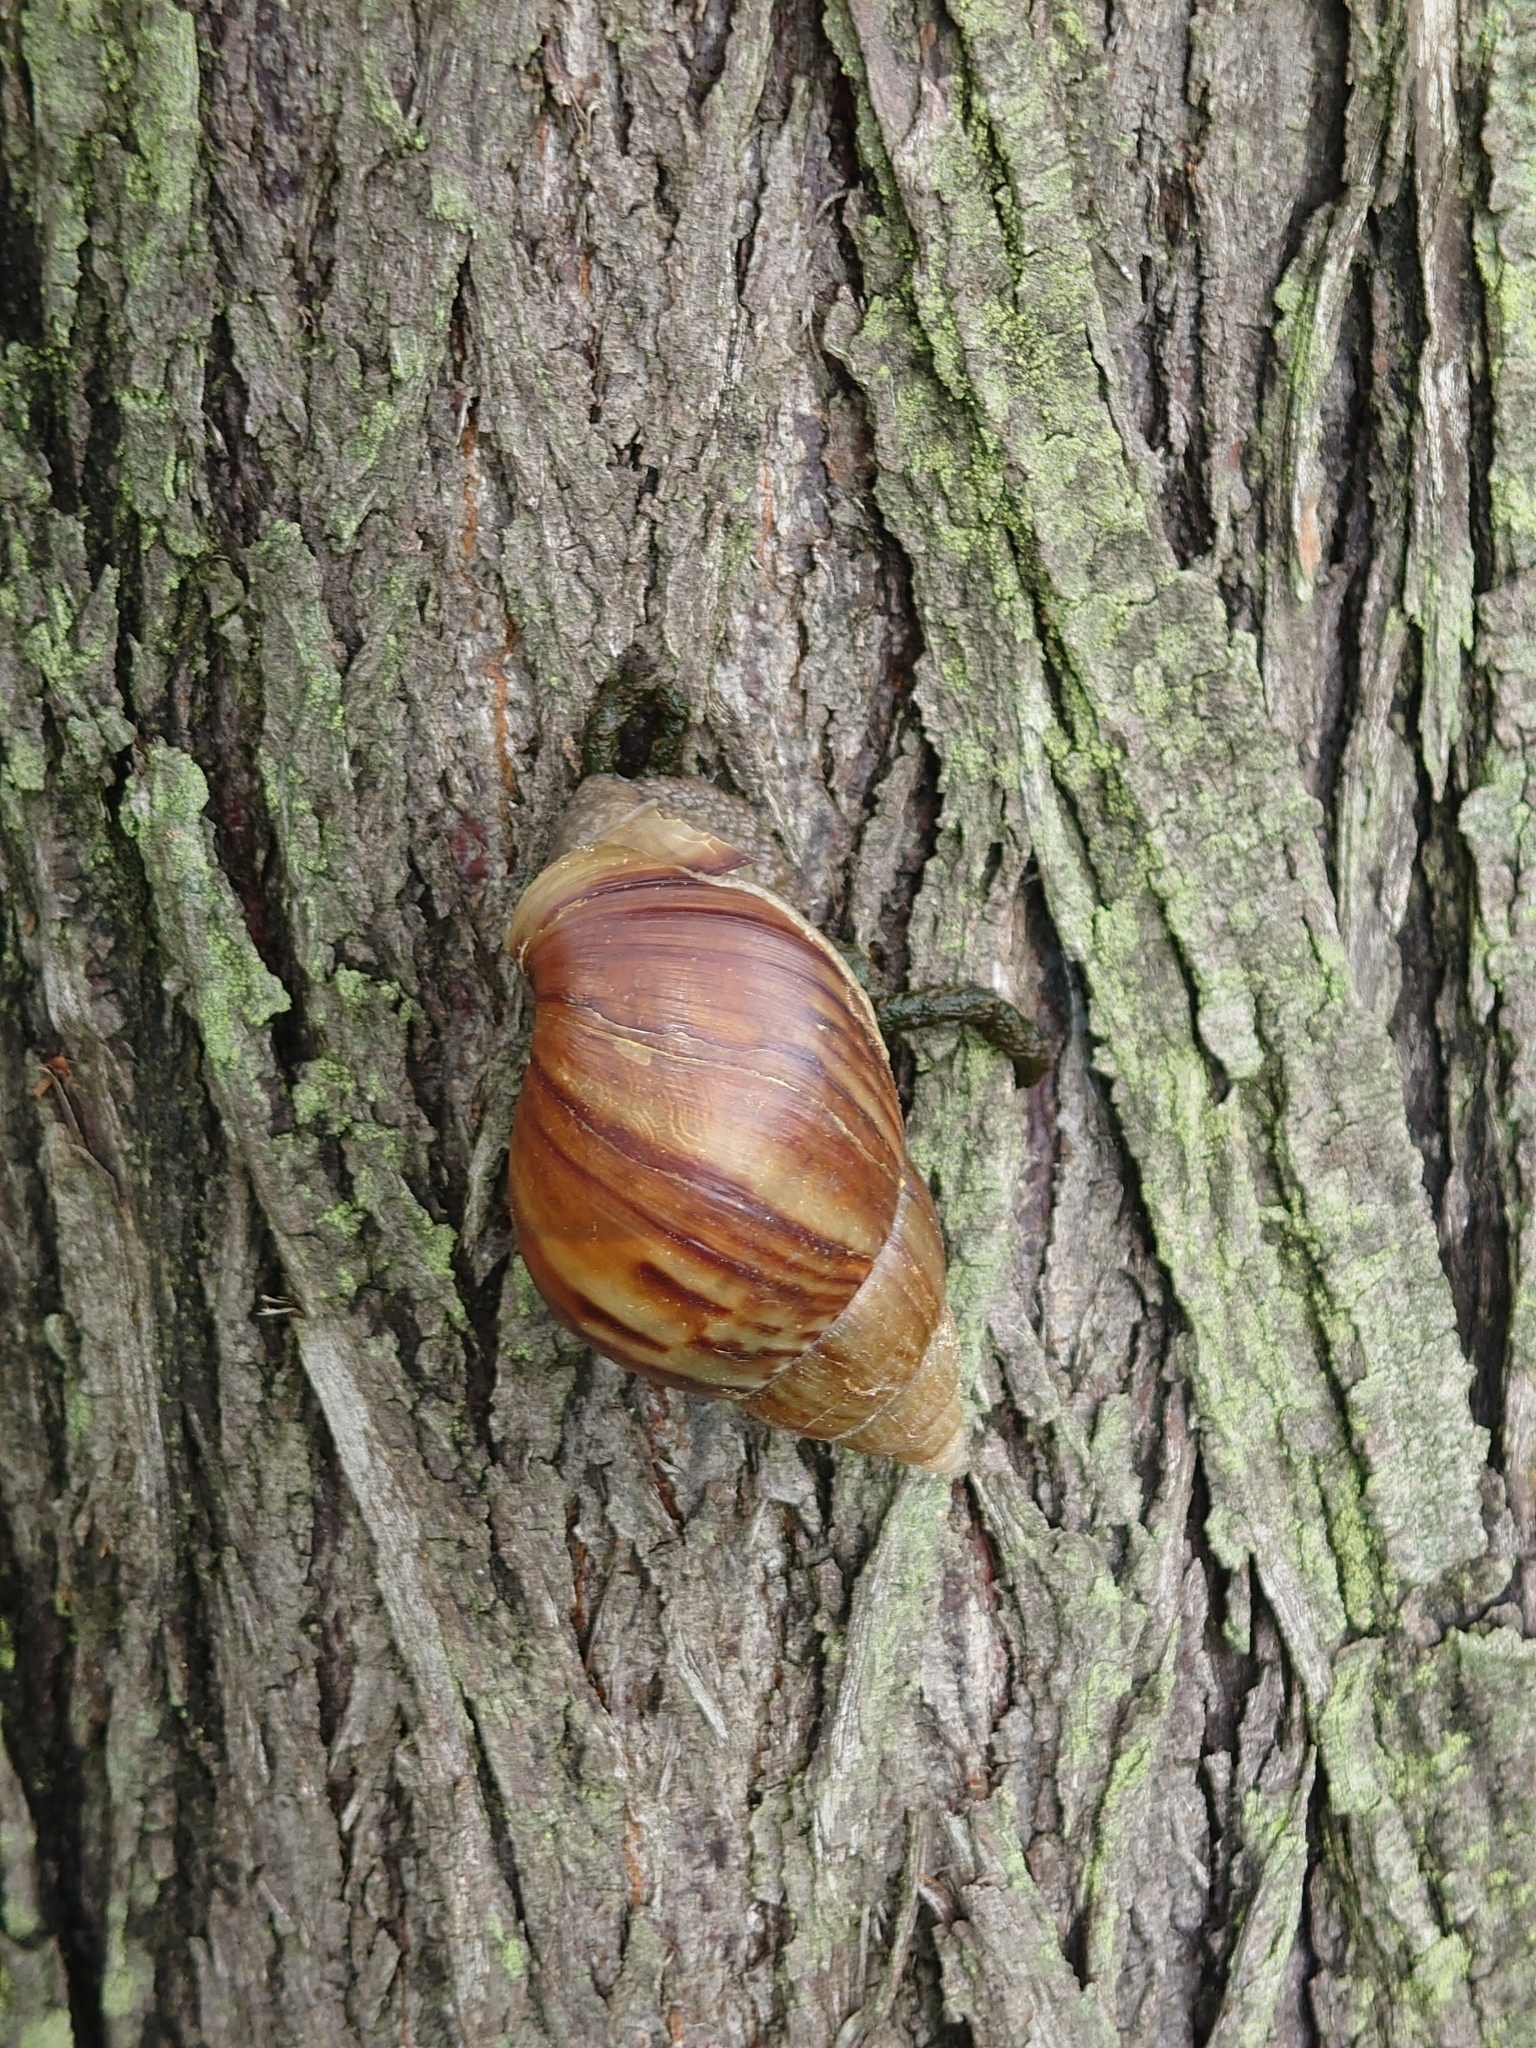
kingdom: Animalia
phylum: Mollusca
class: Gastropoda
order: Stylommatophora
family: Achatinidae
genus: Lissachatina
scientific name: Lissachatina fulica
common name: Giant african snail
